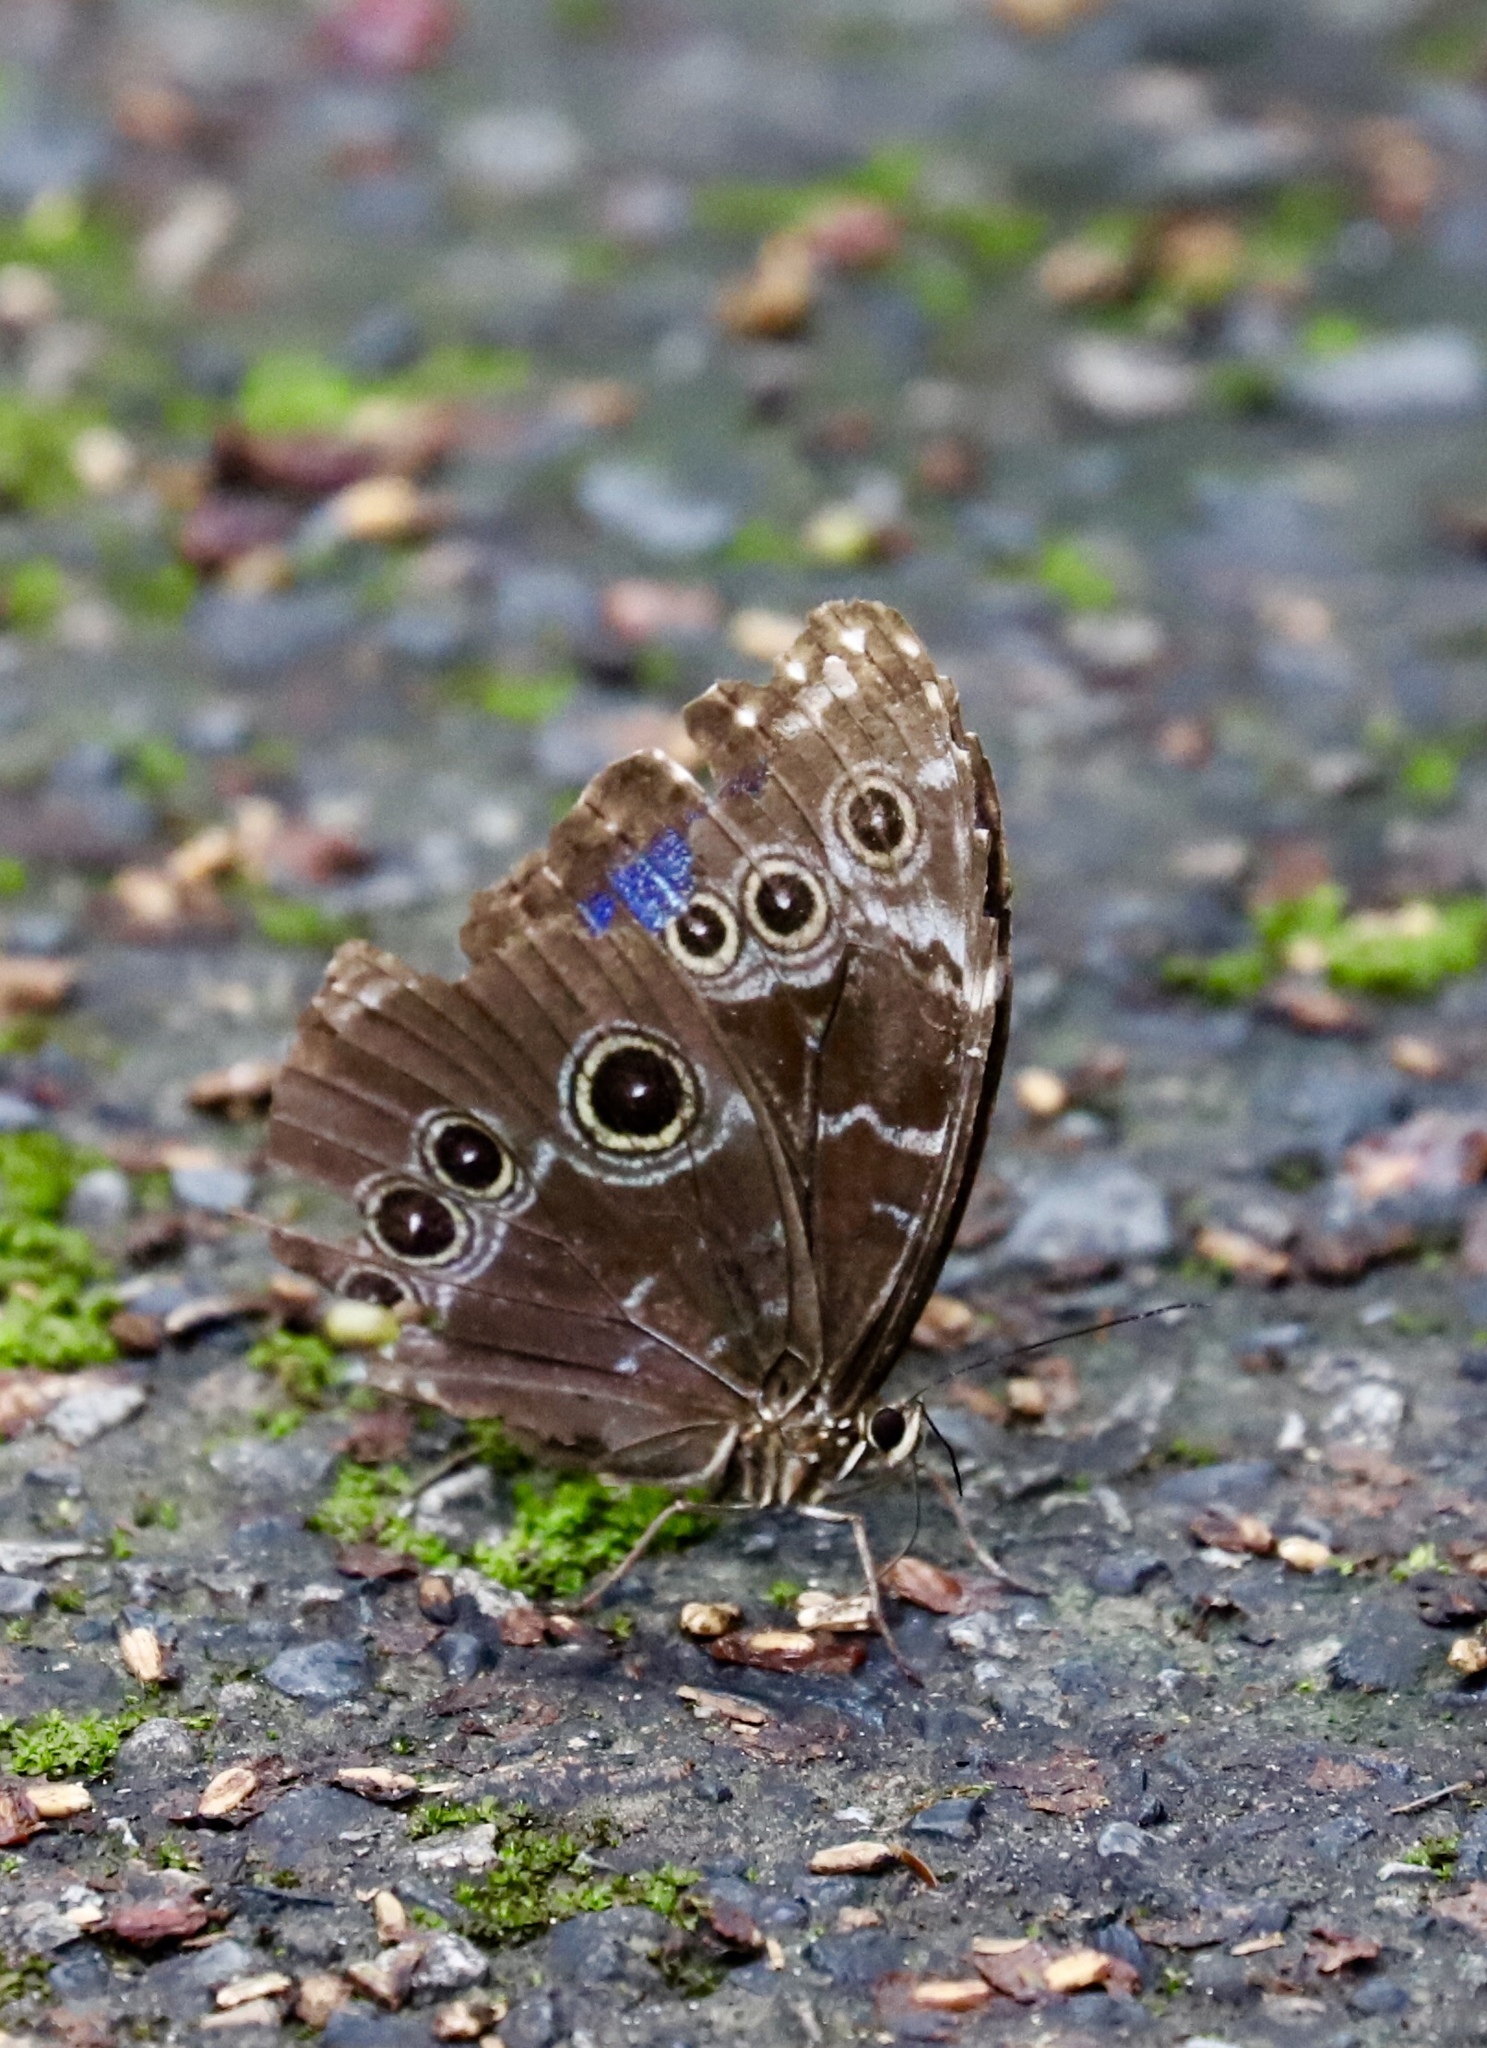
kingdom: Animalia
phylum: Arthropoda
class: Insecta
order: Lepidoptera
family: Nymphalidae
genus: Morpho
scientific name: Morpho helenor
